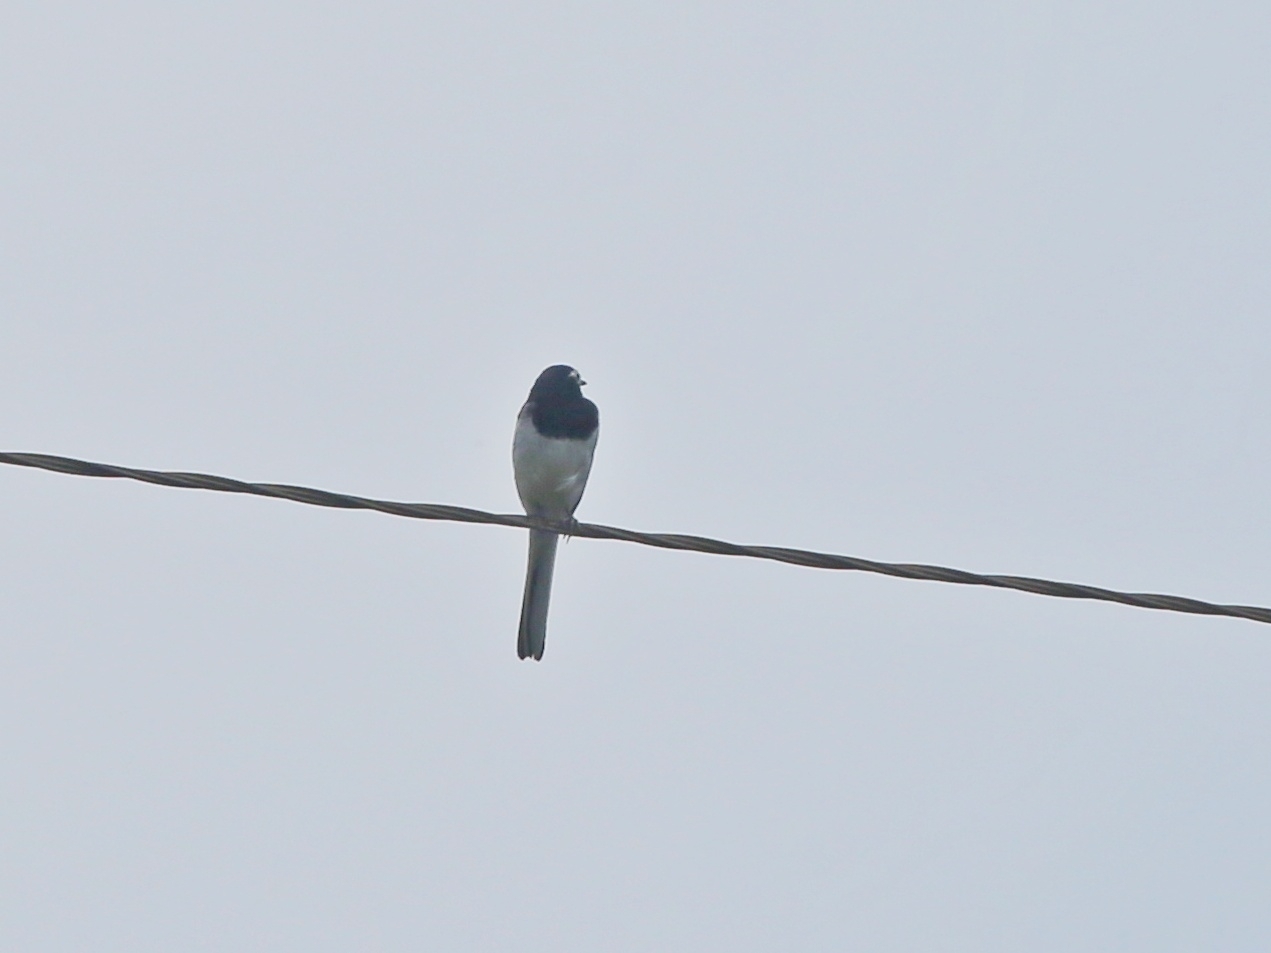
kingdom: Animalia
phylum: Chordata
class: Aves
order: Passeriformes
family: Motacillidae
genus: Motacilla
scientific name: Motacilla alba
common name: White wagtail
